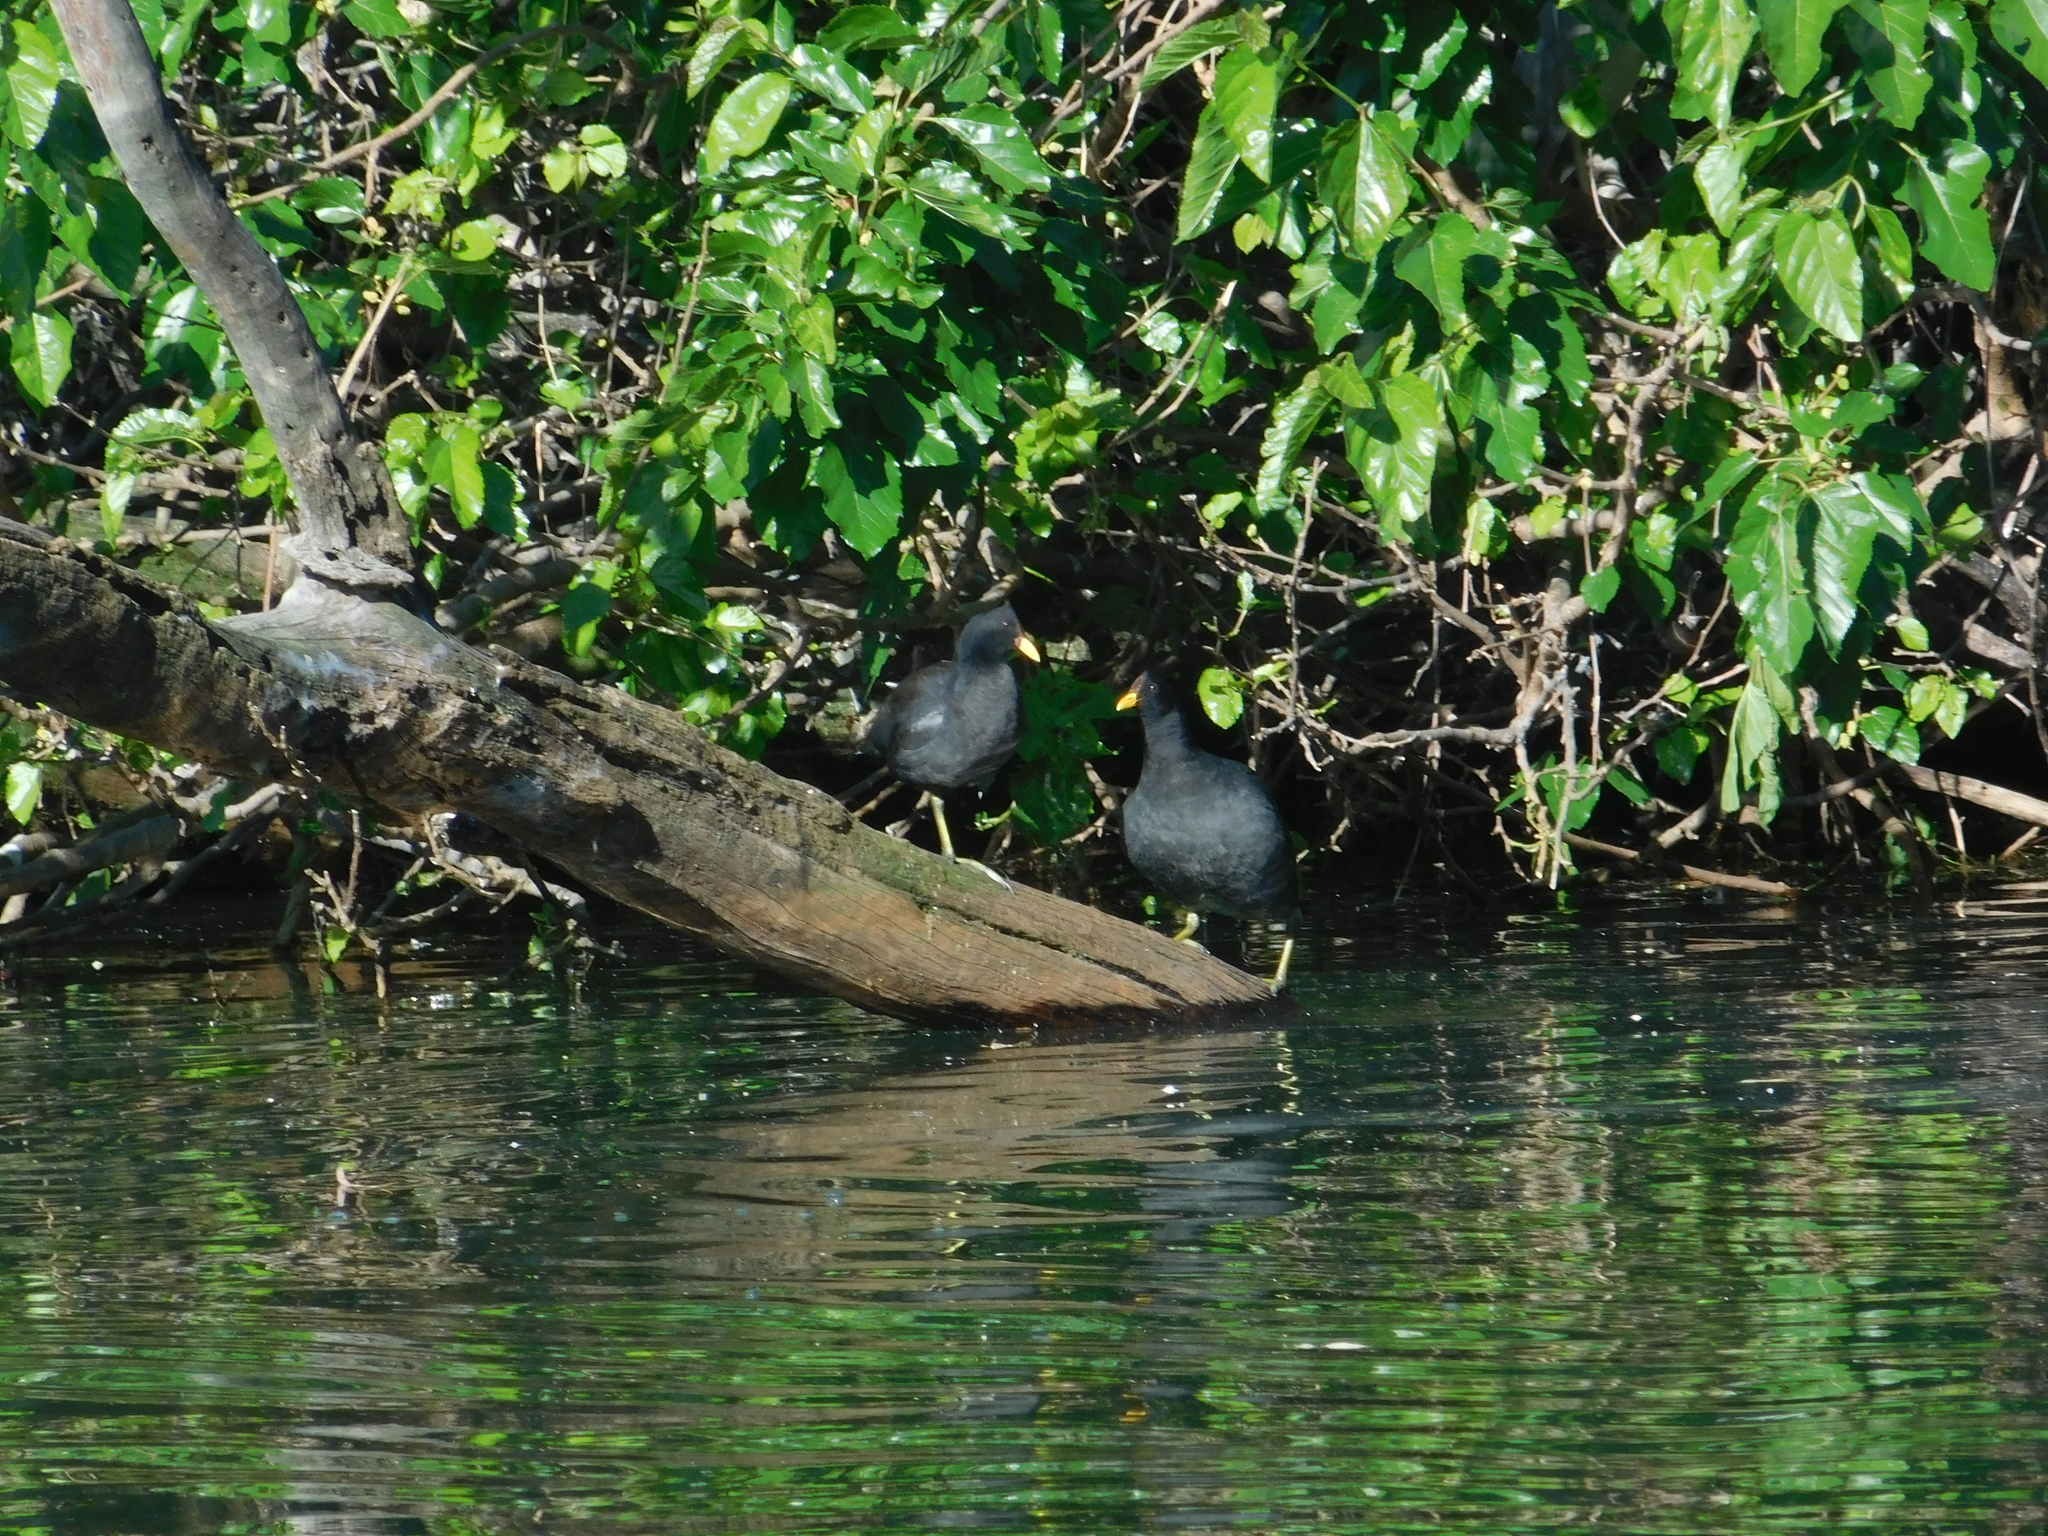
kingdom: Animalia
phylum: Chordata
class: Aves
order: Gruiformes
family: Rallidae
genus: Fulica
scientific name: Fulica rufifrons
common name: Red-fronted coot
